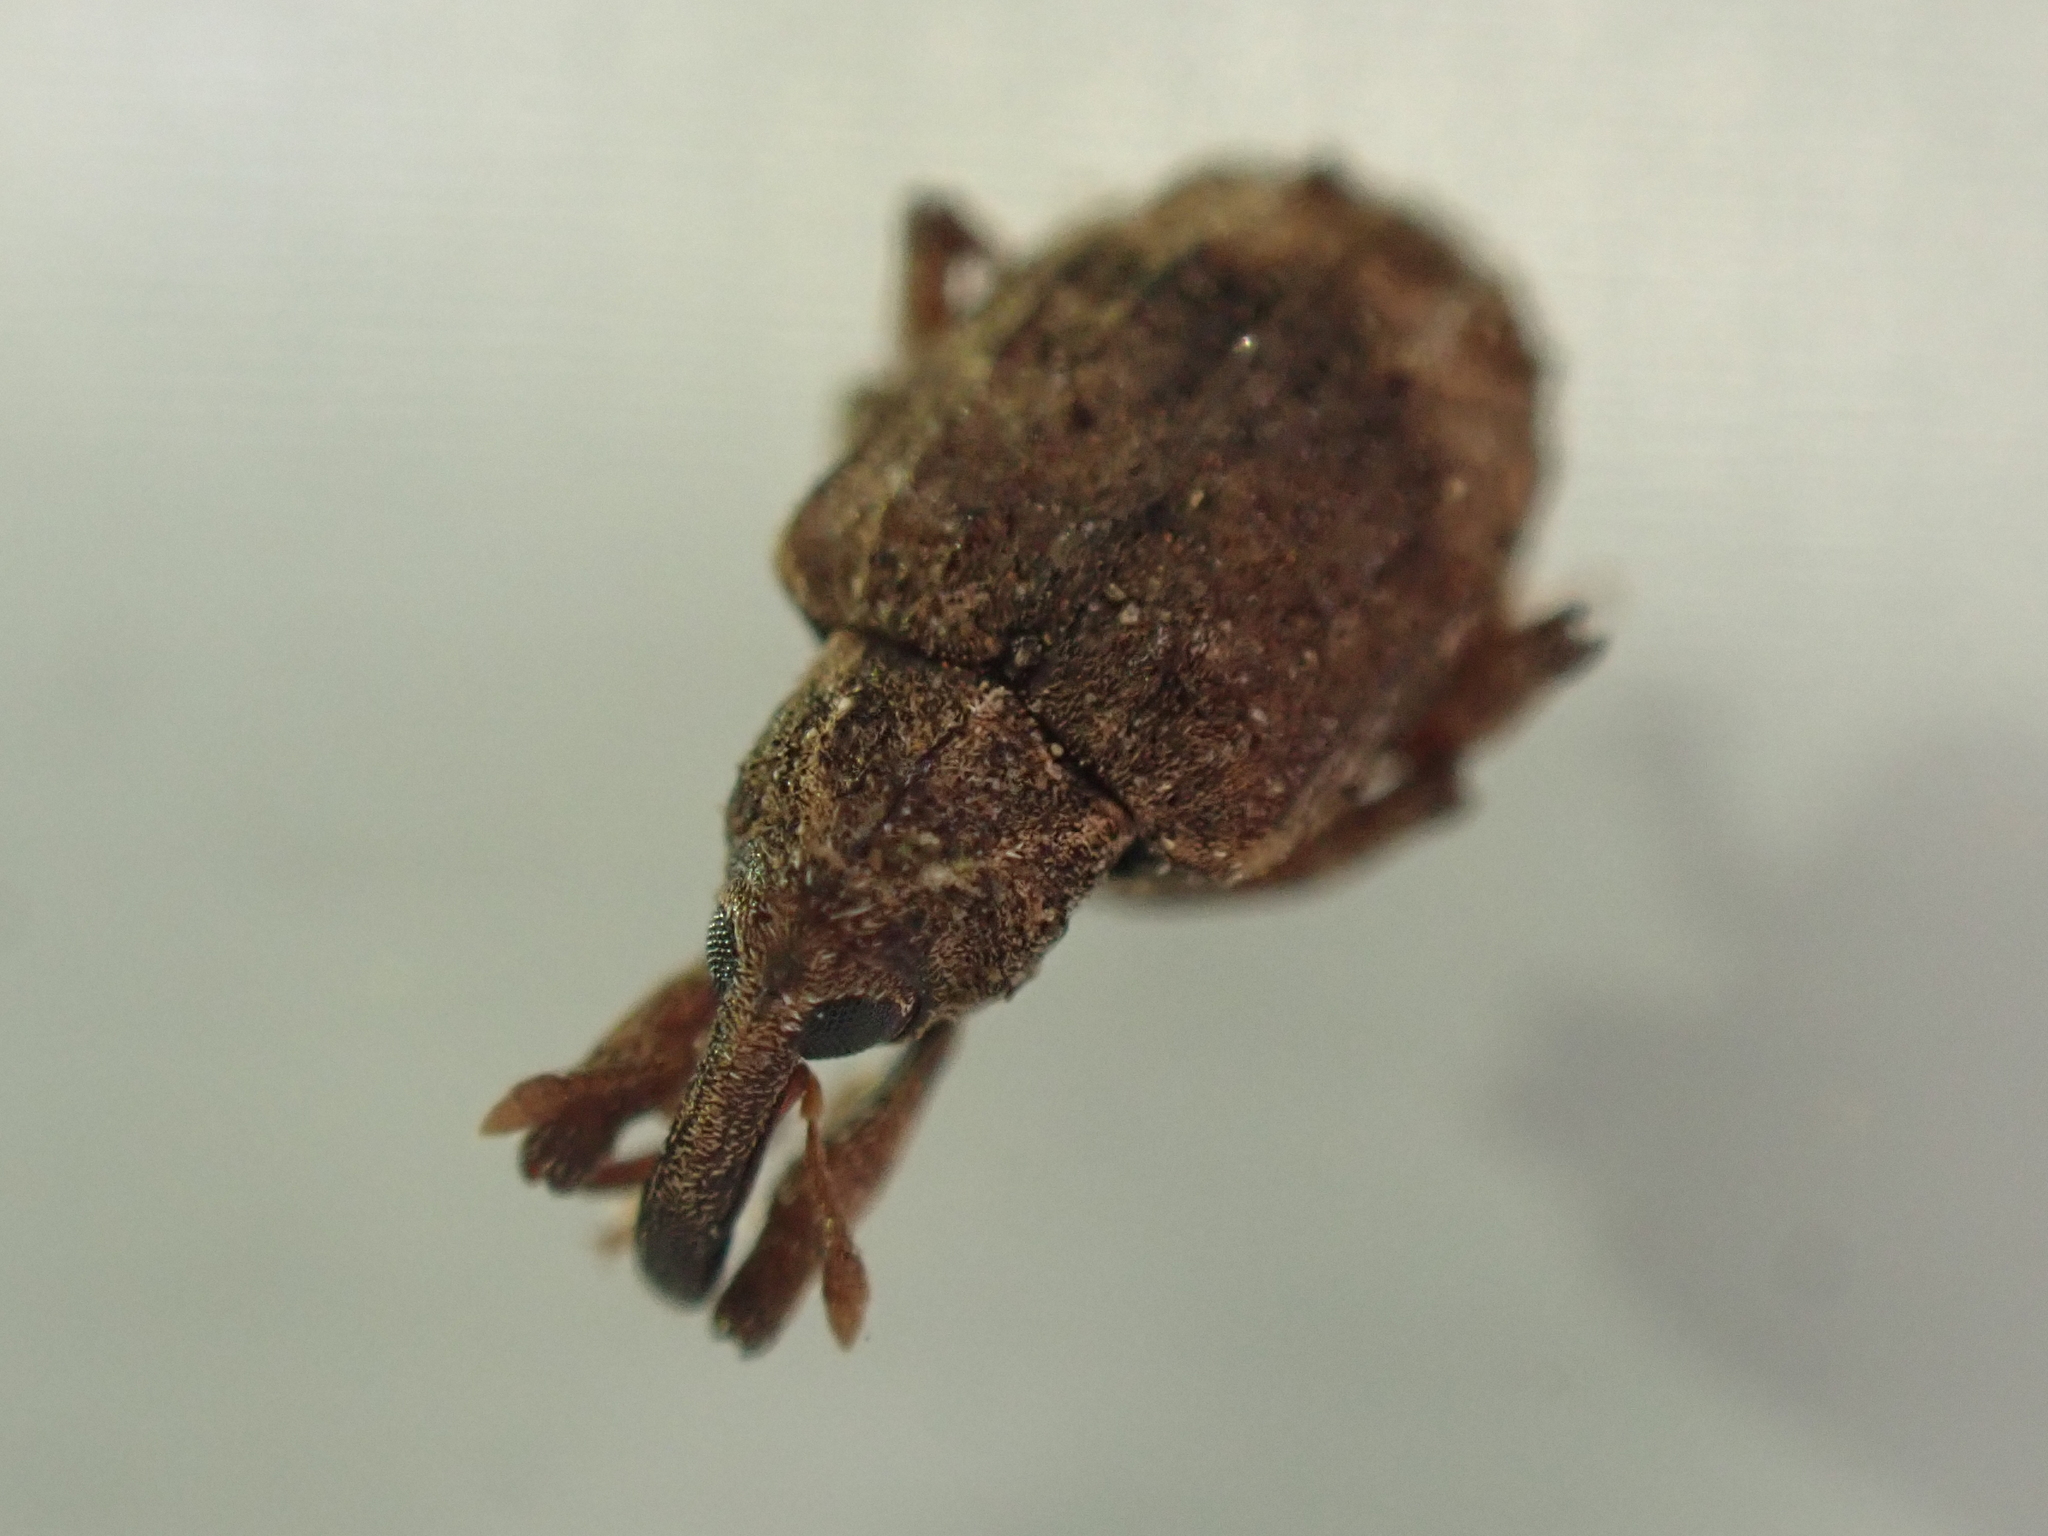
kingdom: Animalia
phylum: Arthropoda
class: Insecta
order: Coleoptera
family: Curculionidae
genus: Conotrachelus
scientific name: Conotrachelus seniculus
